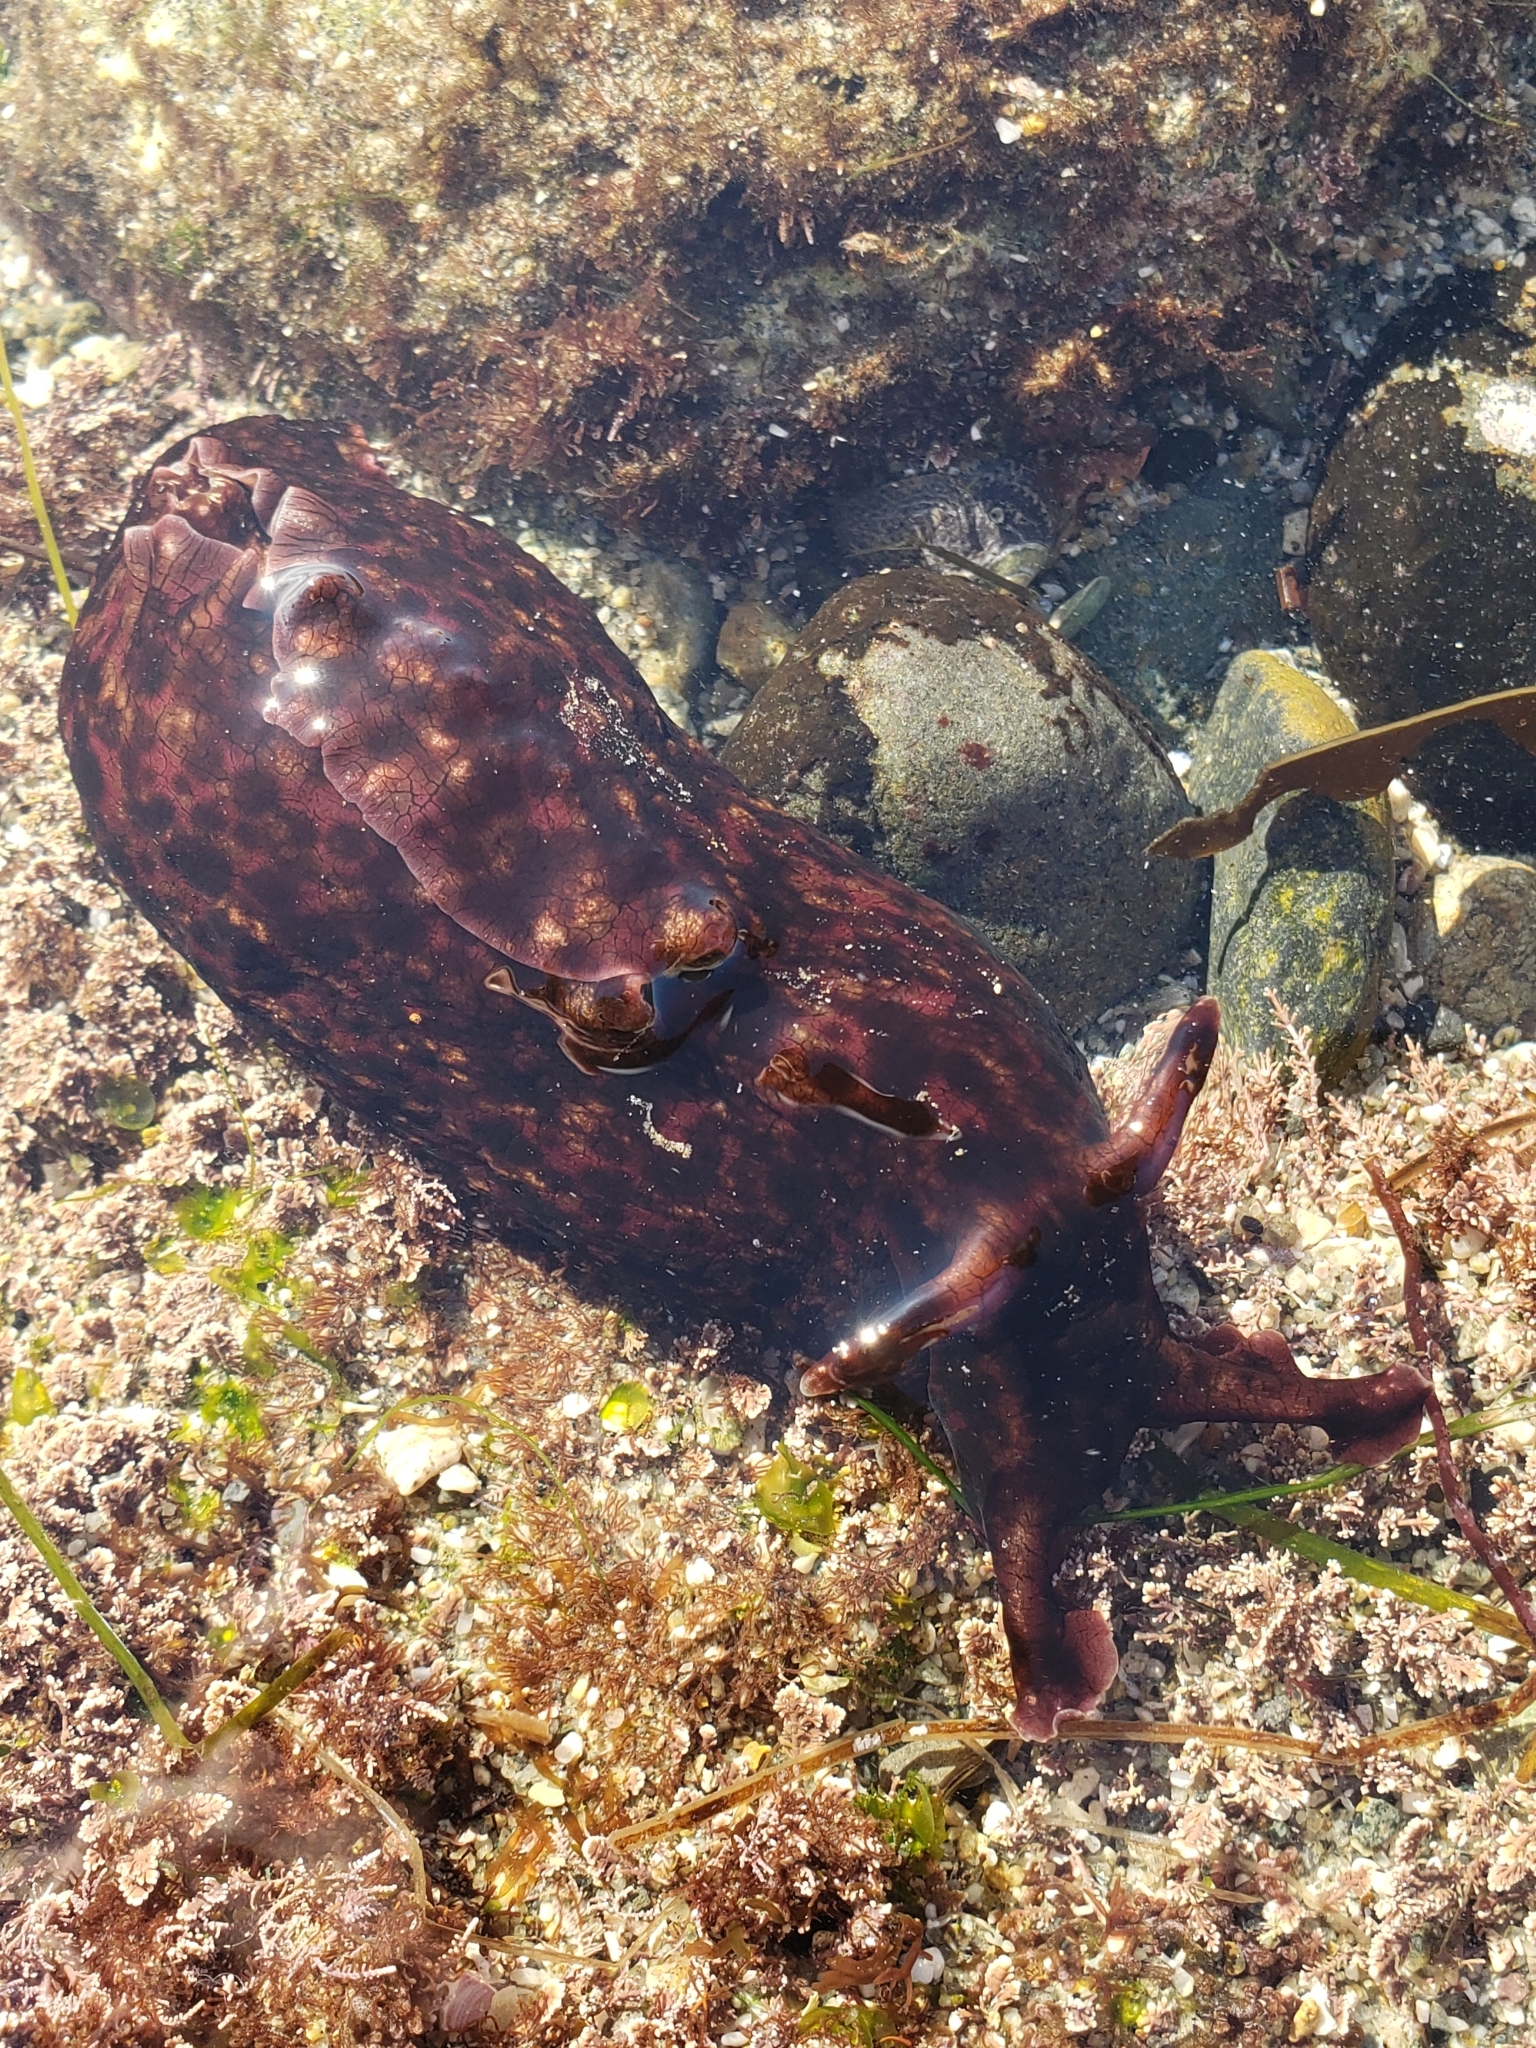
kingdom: Animalia
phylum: Mollusca
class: Gastropoda
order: Aplysiida
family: Aplysiidae
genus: Aplysia
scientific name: Aplysia californica
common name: California seahare
